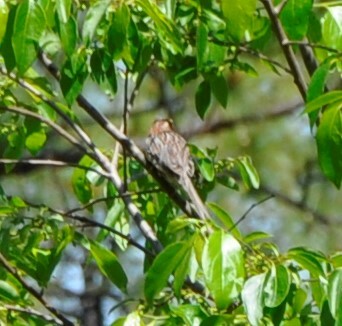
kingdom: Animalia
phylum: Chordata
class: Aves
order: Passeriformes
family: Passerellidae
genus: Peucaea
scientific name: Peucaea aestivalis
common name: Bachman's sparrow
